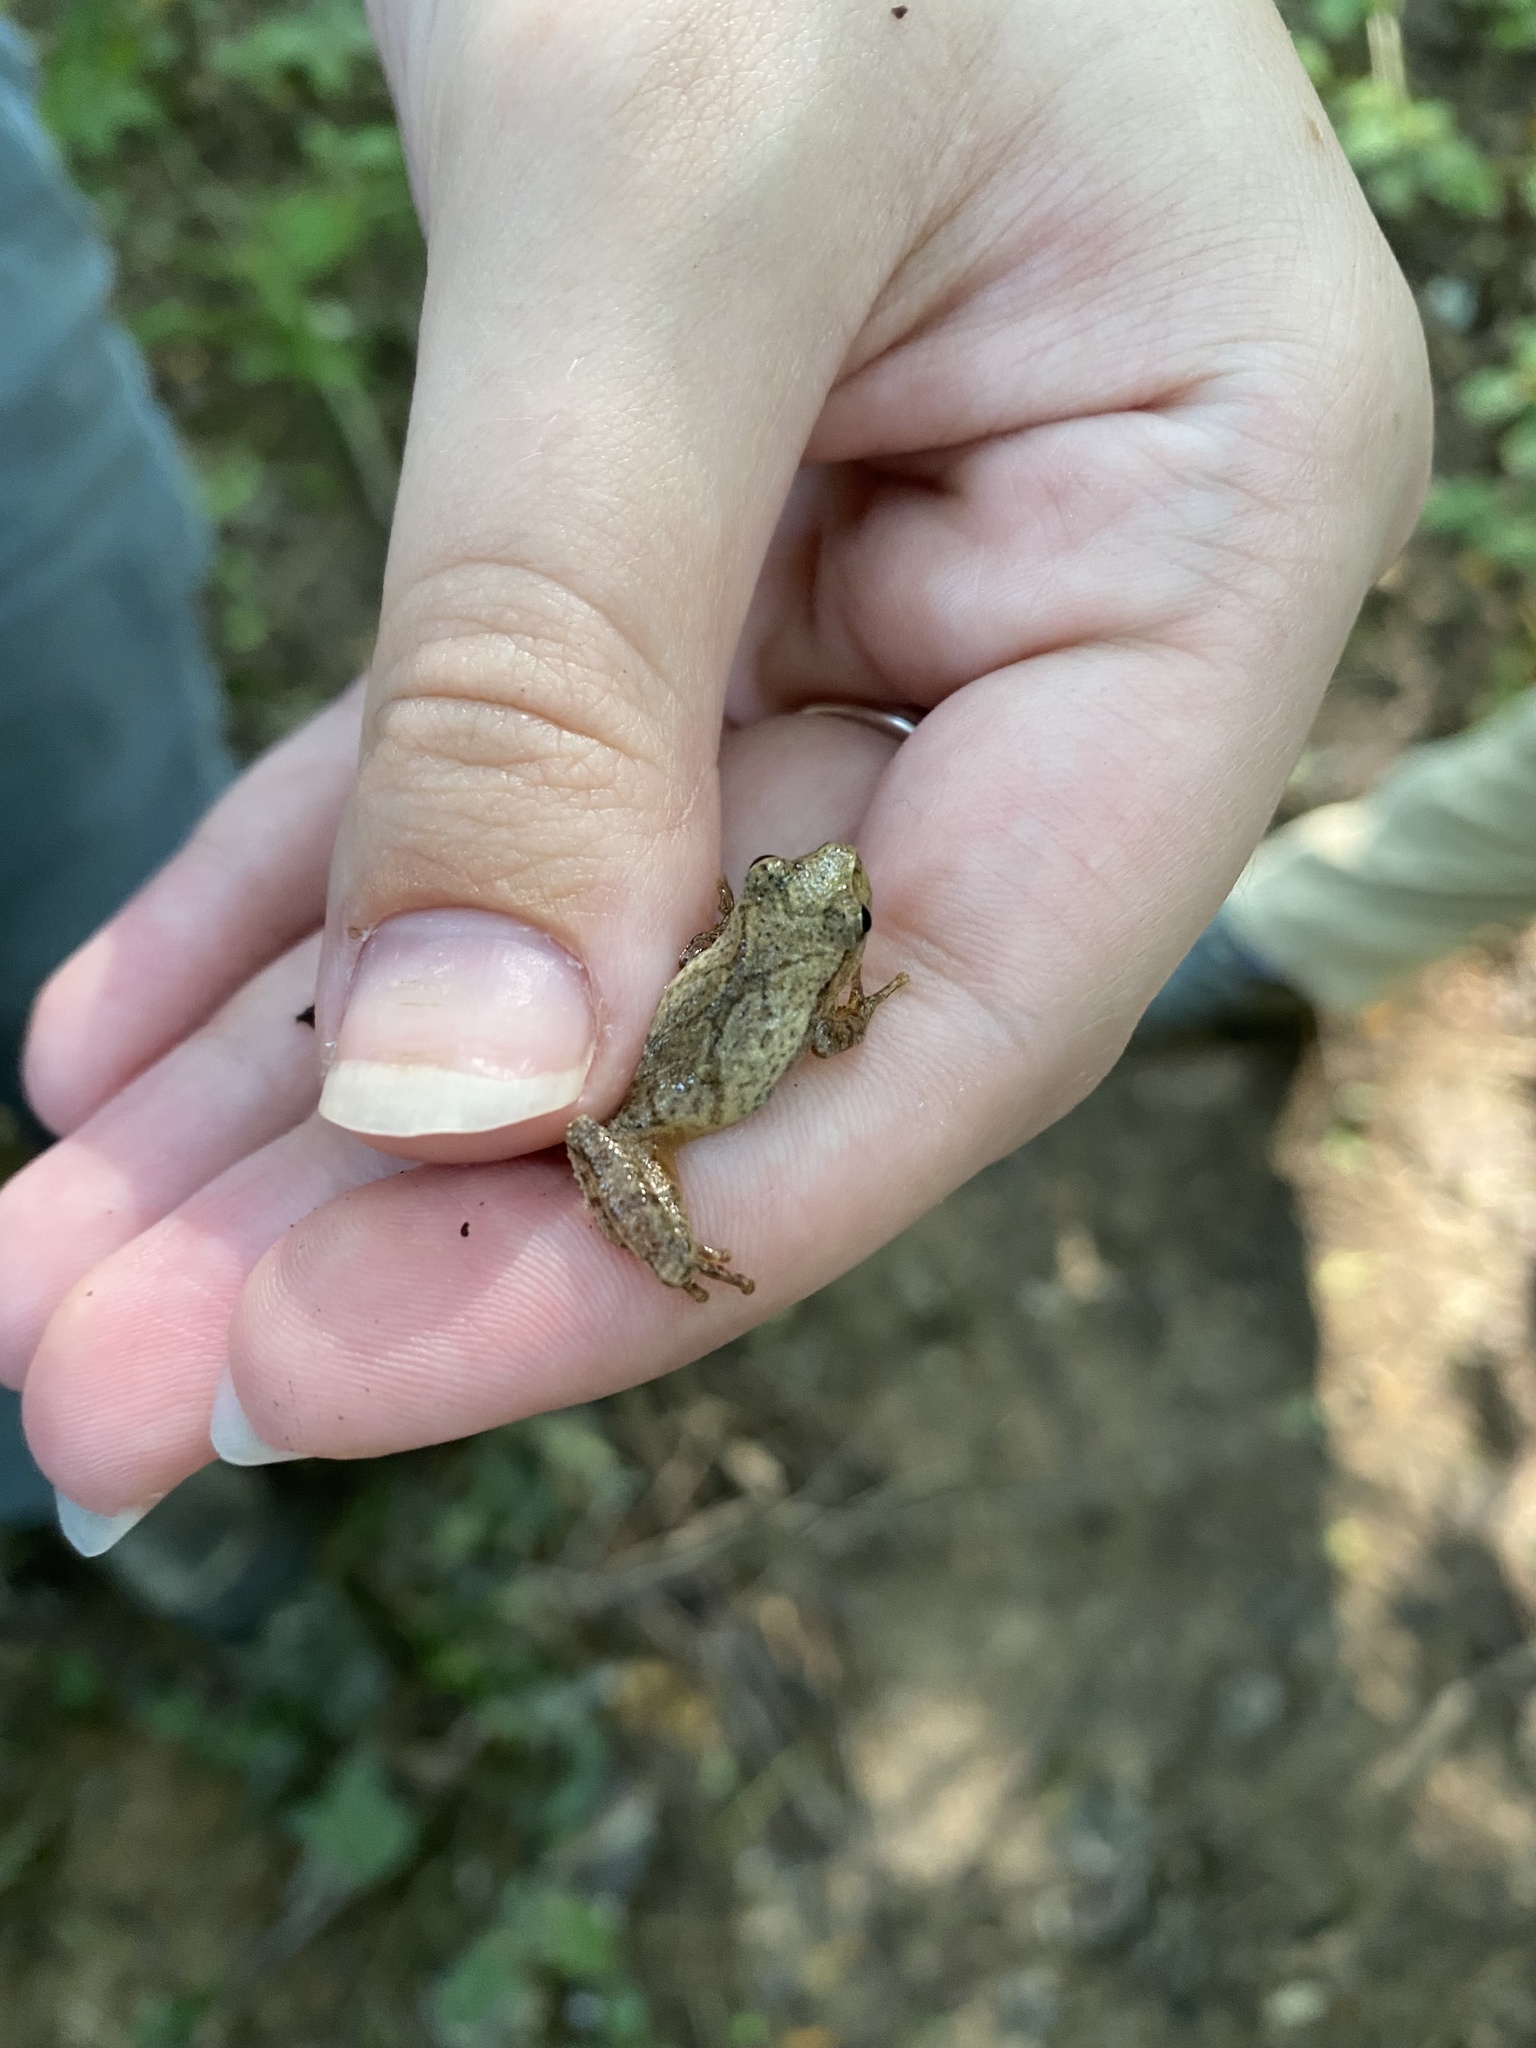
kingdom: Animalia
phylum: Chordata
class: Amphibia
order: Anura
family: Hylidae
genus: Pseudacris
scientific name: Pseudacris crucifer
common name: Spring peeper
